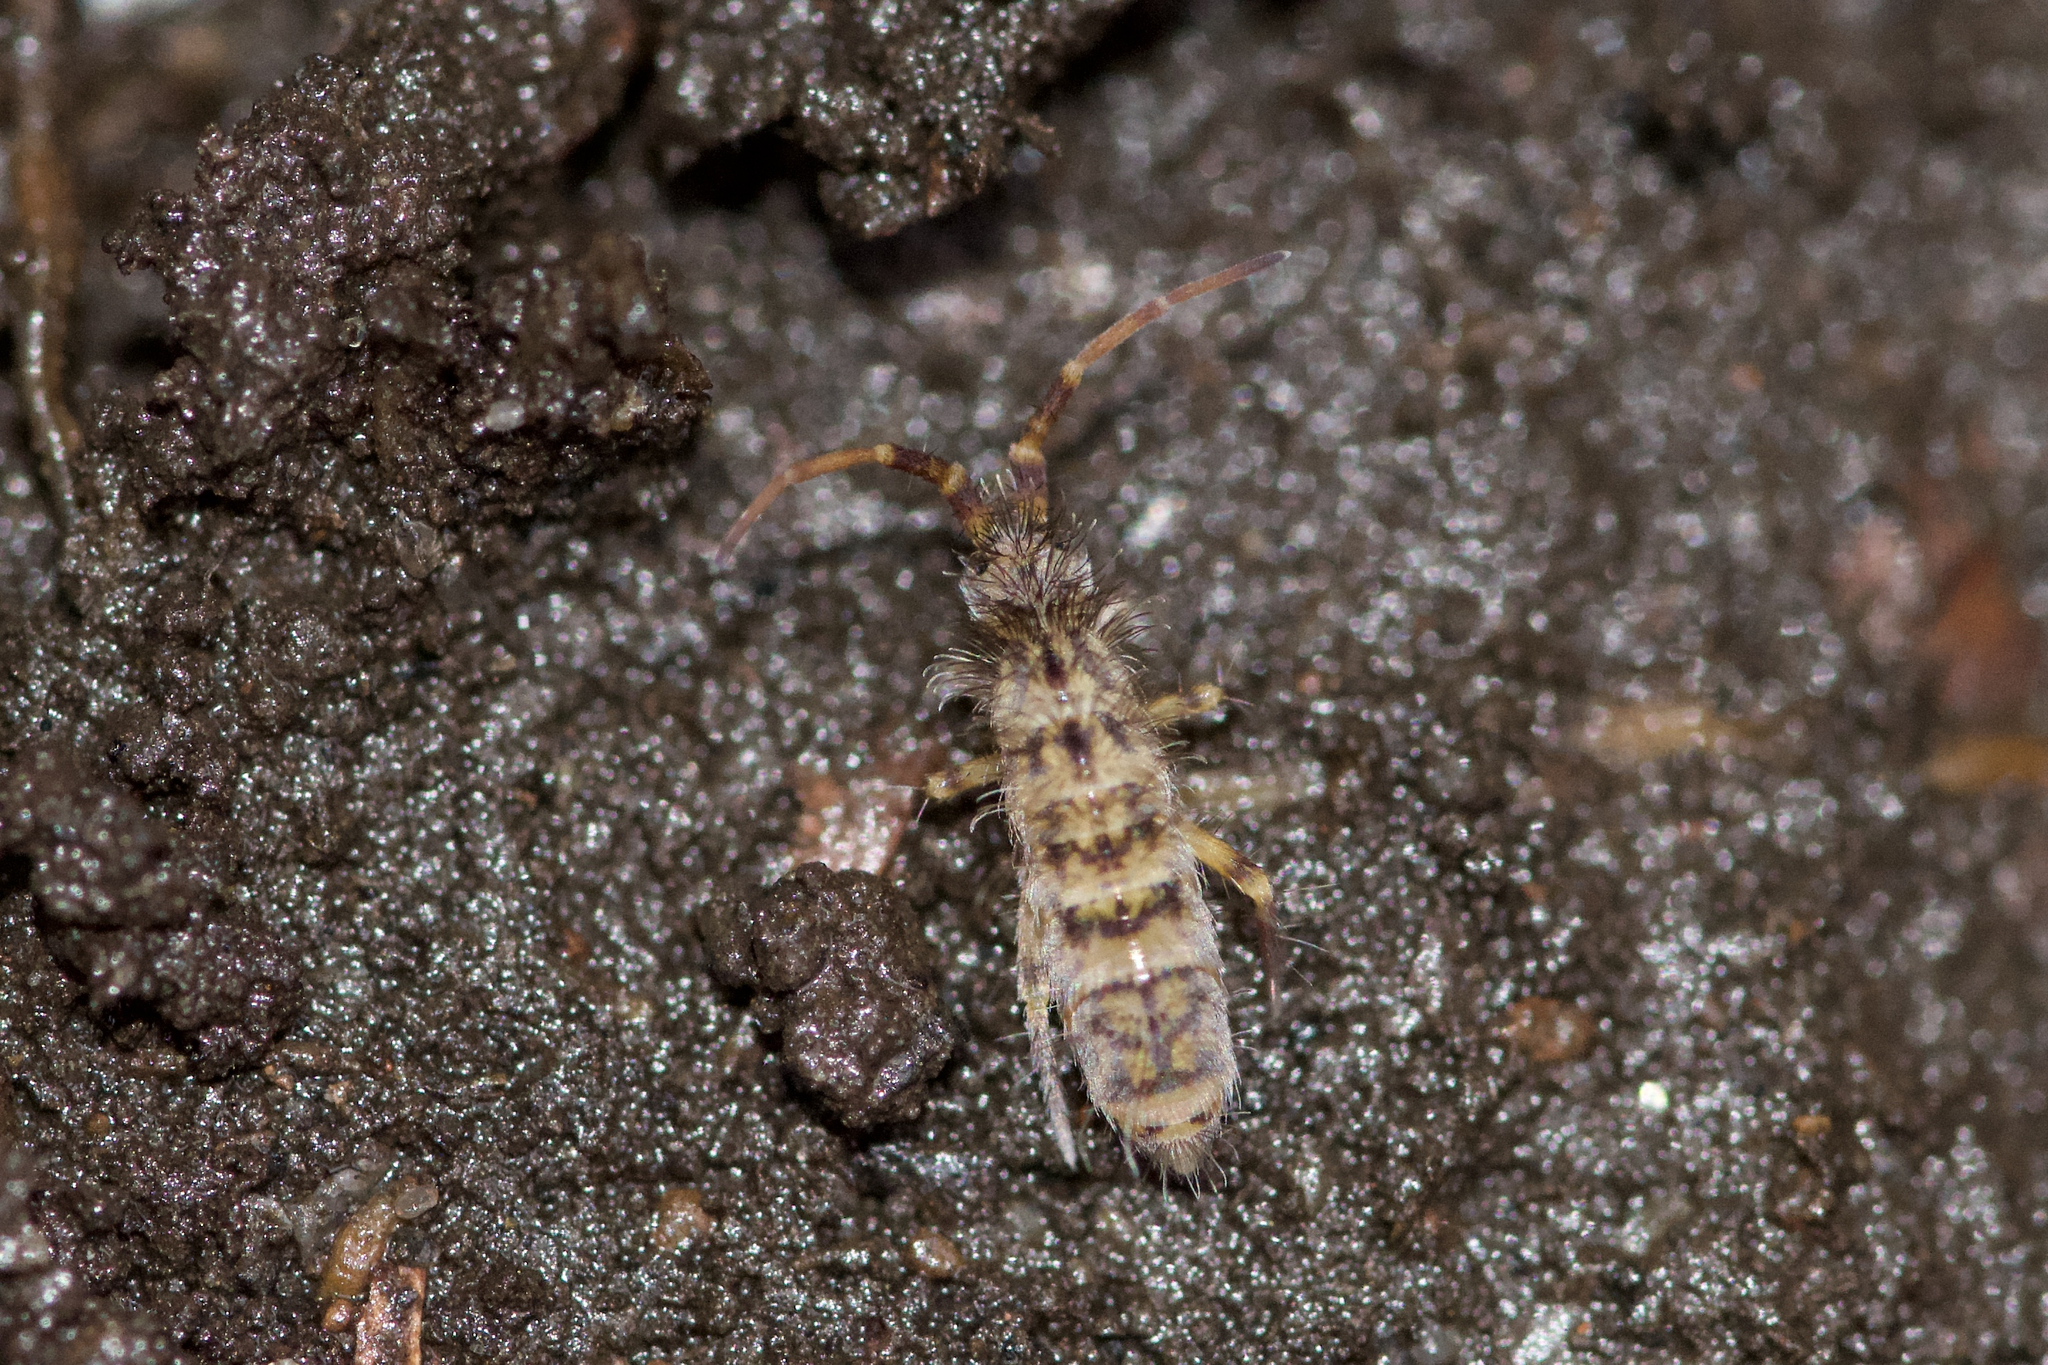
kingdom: Animalia
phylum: Arthropoda
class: Collembola
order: Entomobryomorpha
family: Orchesellidae
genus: Orchesella
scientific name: Orchesella villosa
